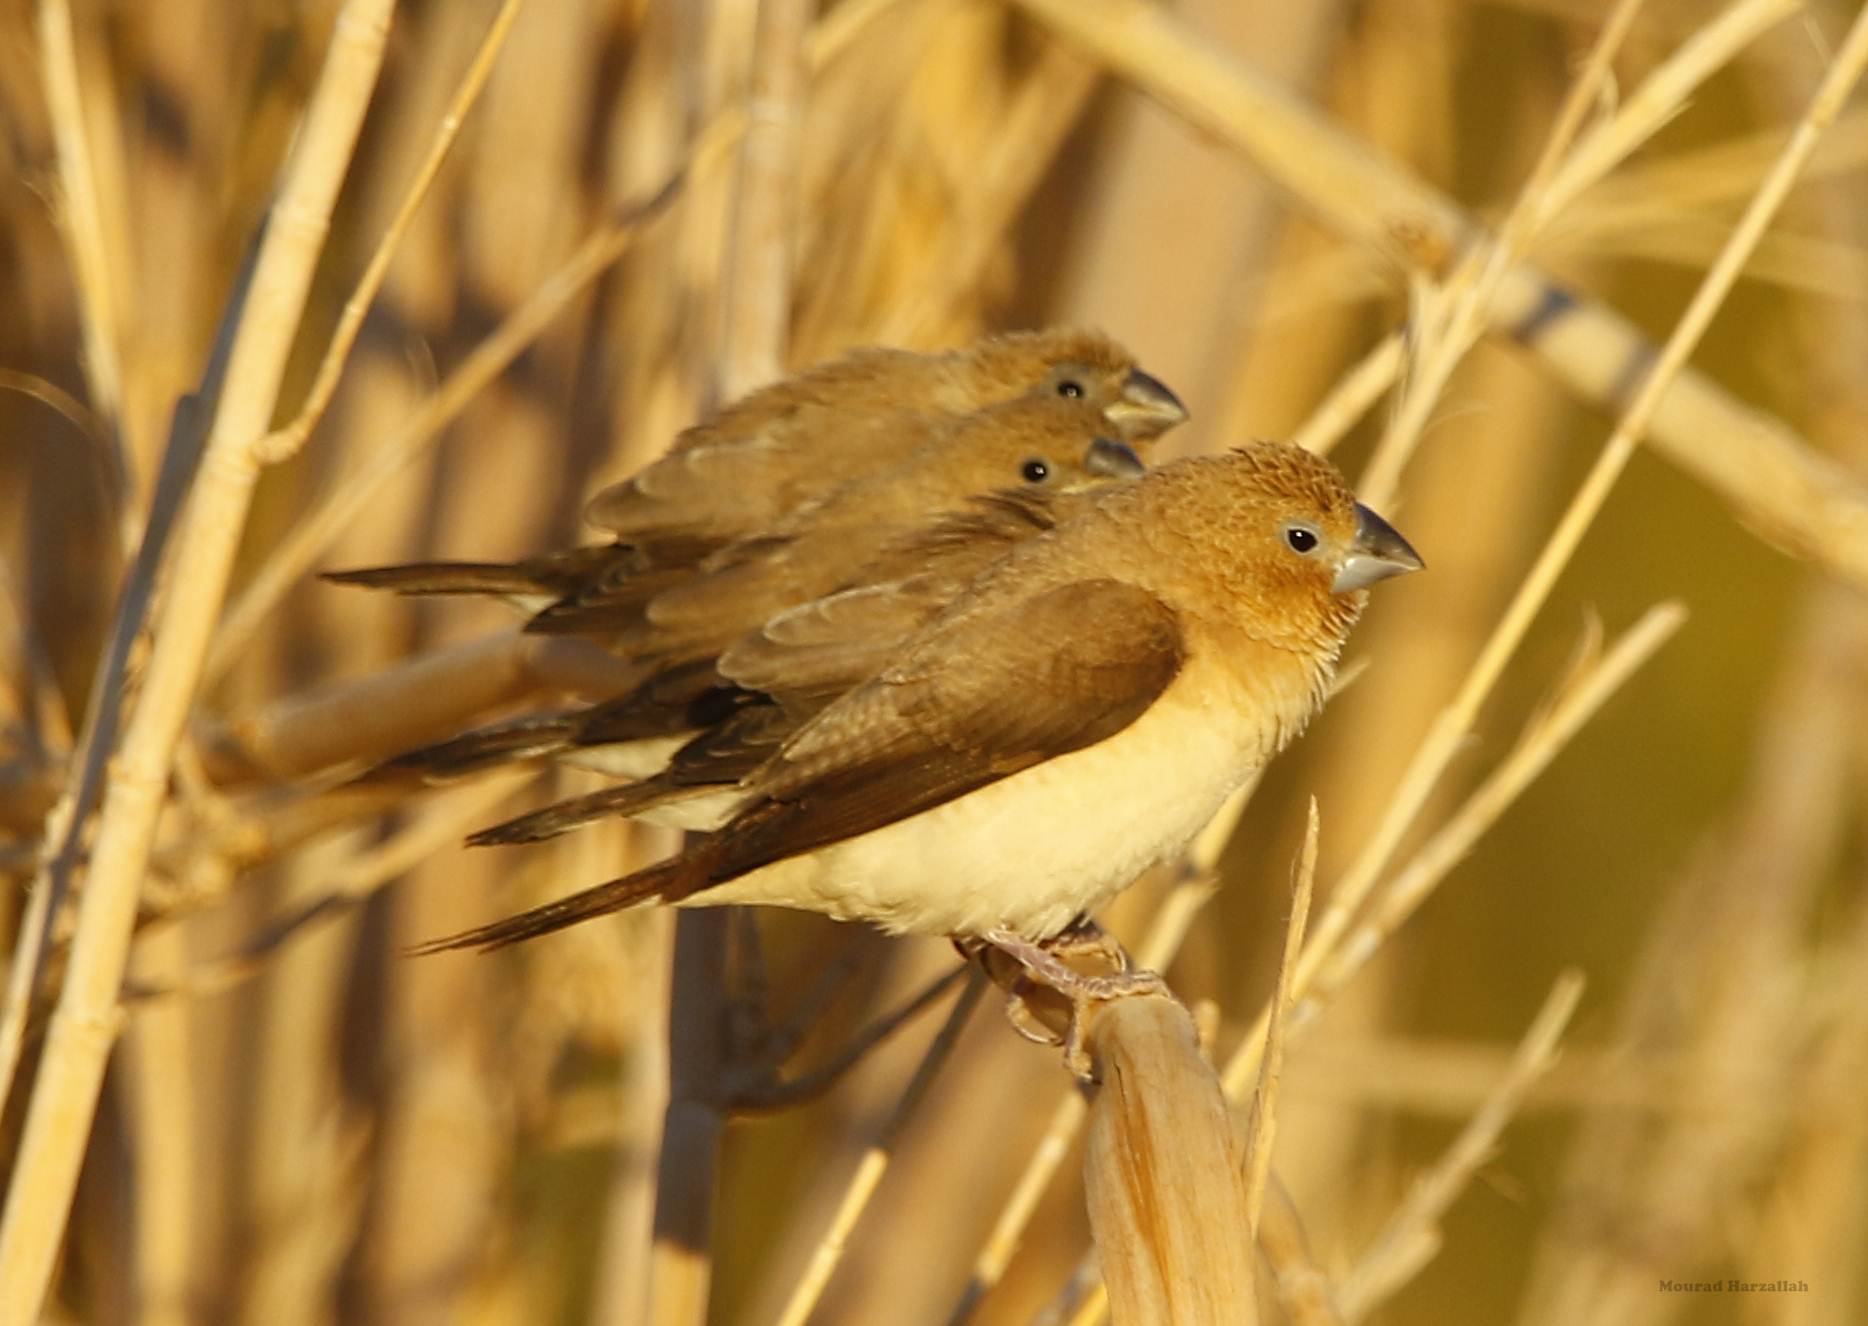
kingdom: Animalia
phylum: Chordata
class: Aves
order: Passeriformes
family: Estrildidae
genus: Euodice
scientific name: Euodice cantans
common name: African silverbill
